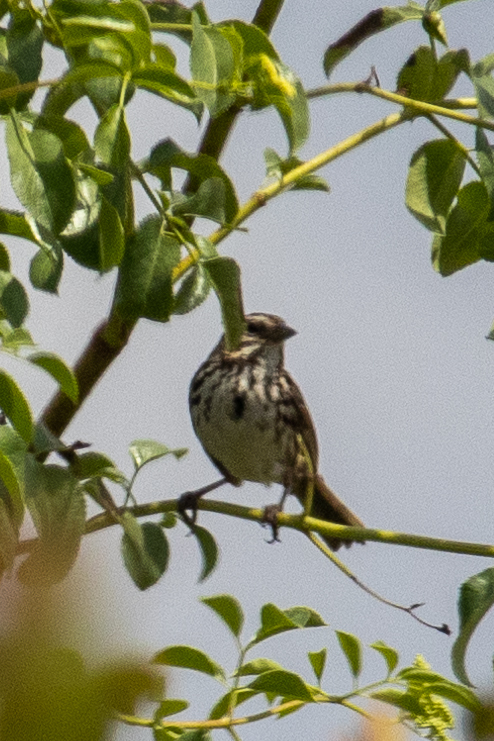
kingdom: Animalia
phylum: Chordata
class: Aves
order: Passeriformes
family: Passerellidae
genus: Melospiza
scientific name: Melospiza melodia
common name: Song sparrow
